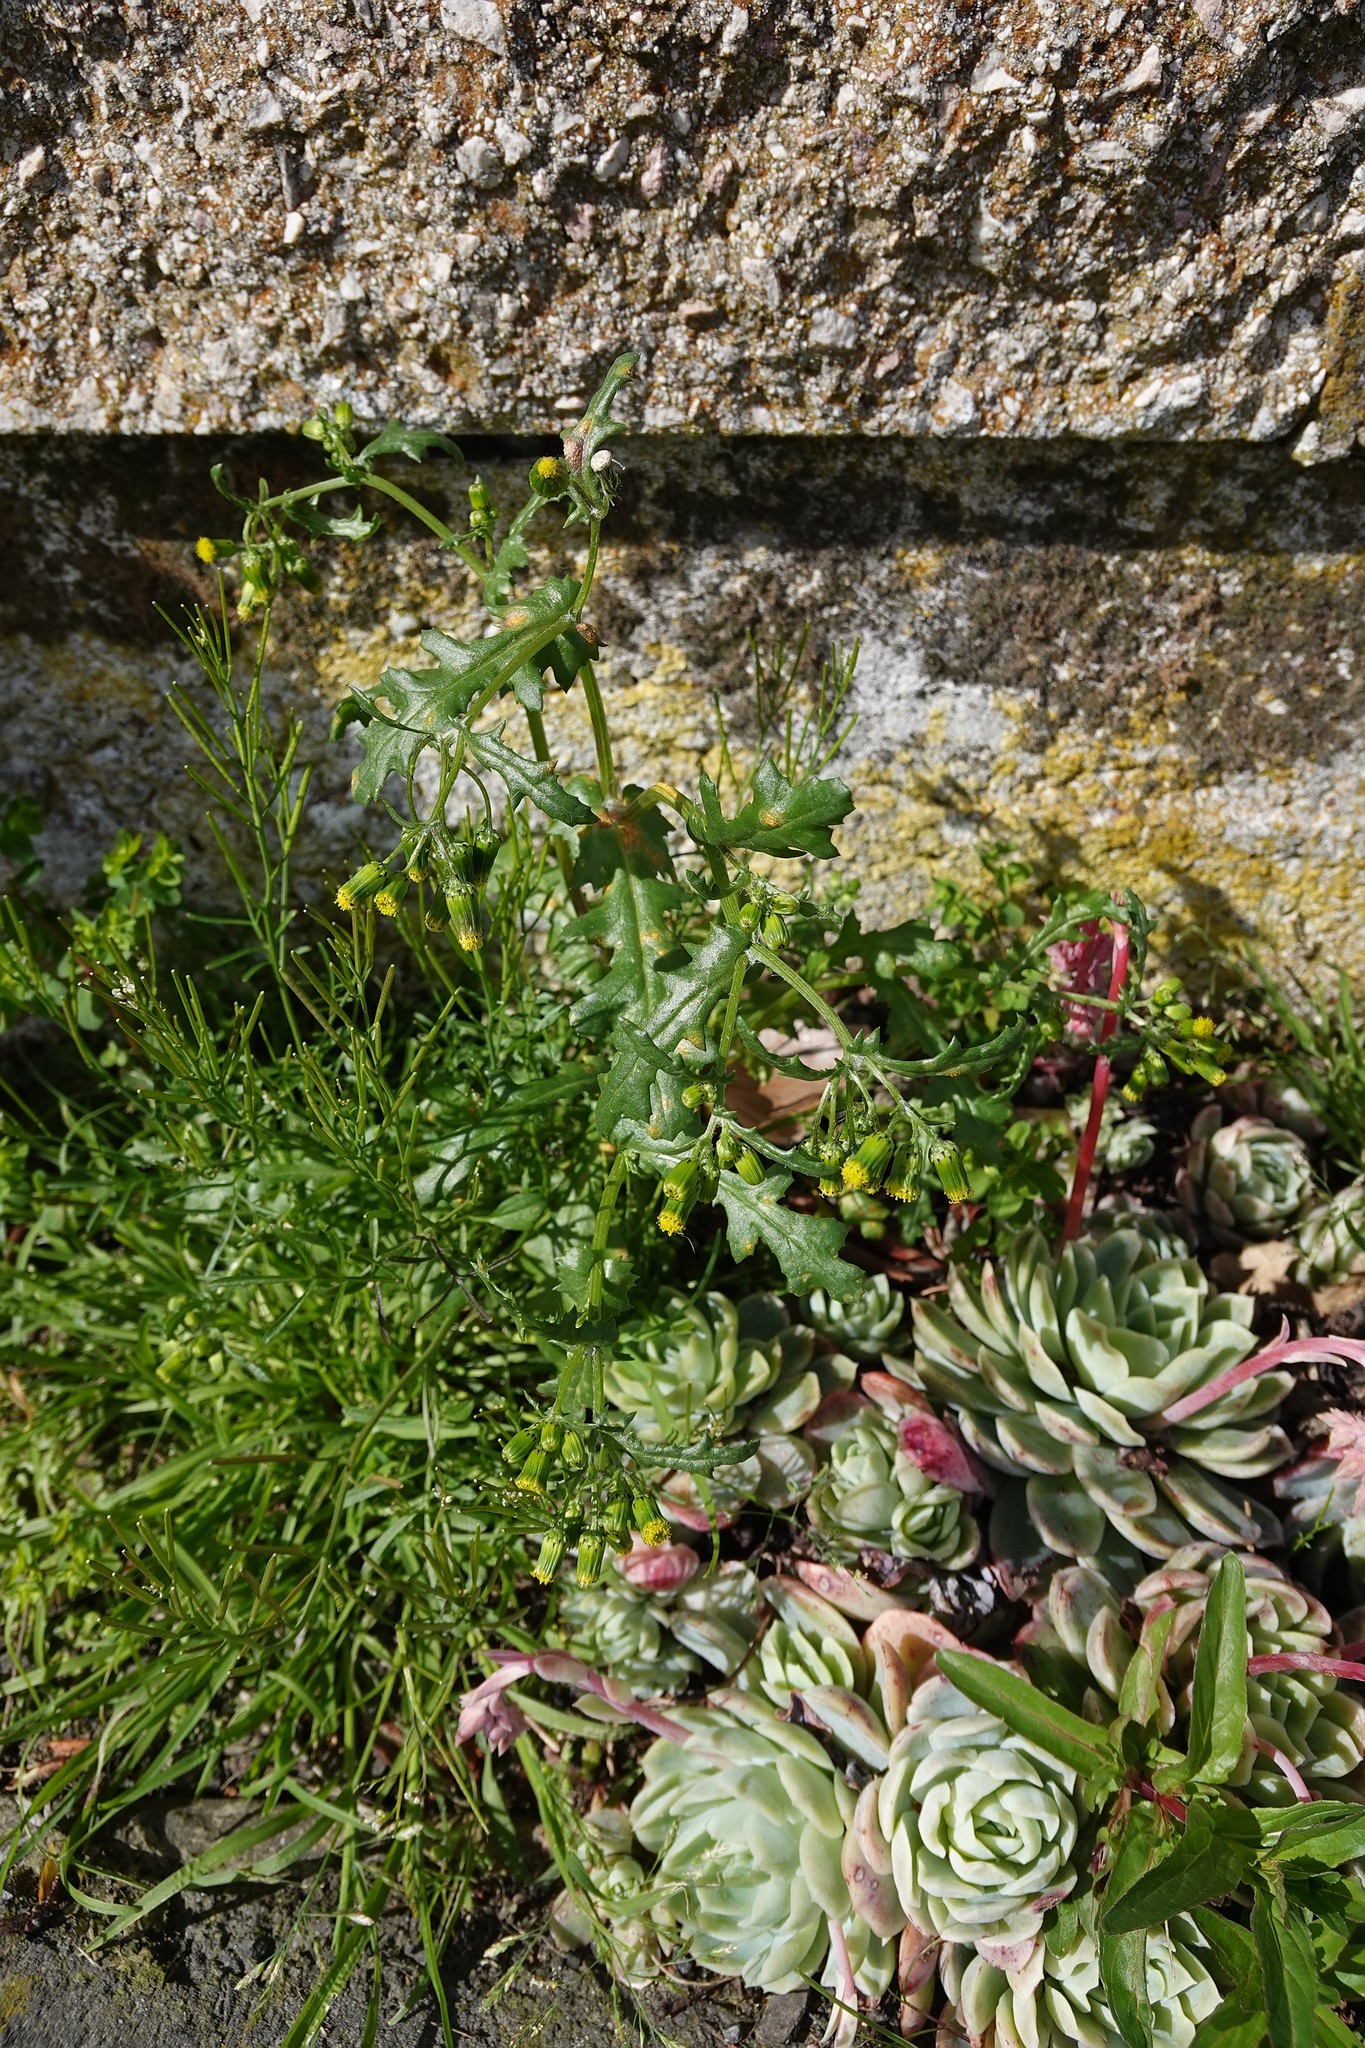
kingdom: Plantae
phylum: Tracheophyta
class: Magnoliopsida
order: Asterales
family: Asteraceae
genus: Senecio
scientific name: Senecio vulgaris
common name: Old-man-in-the-spring
